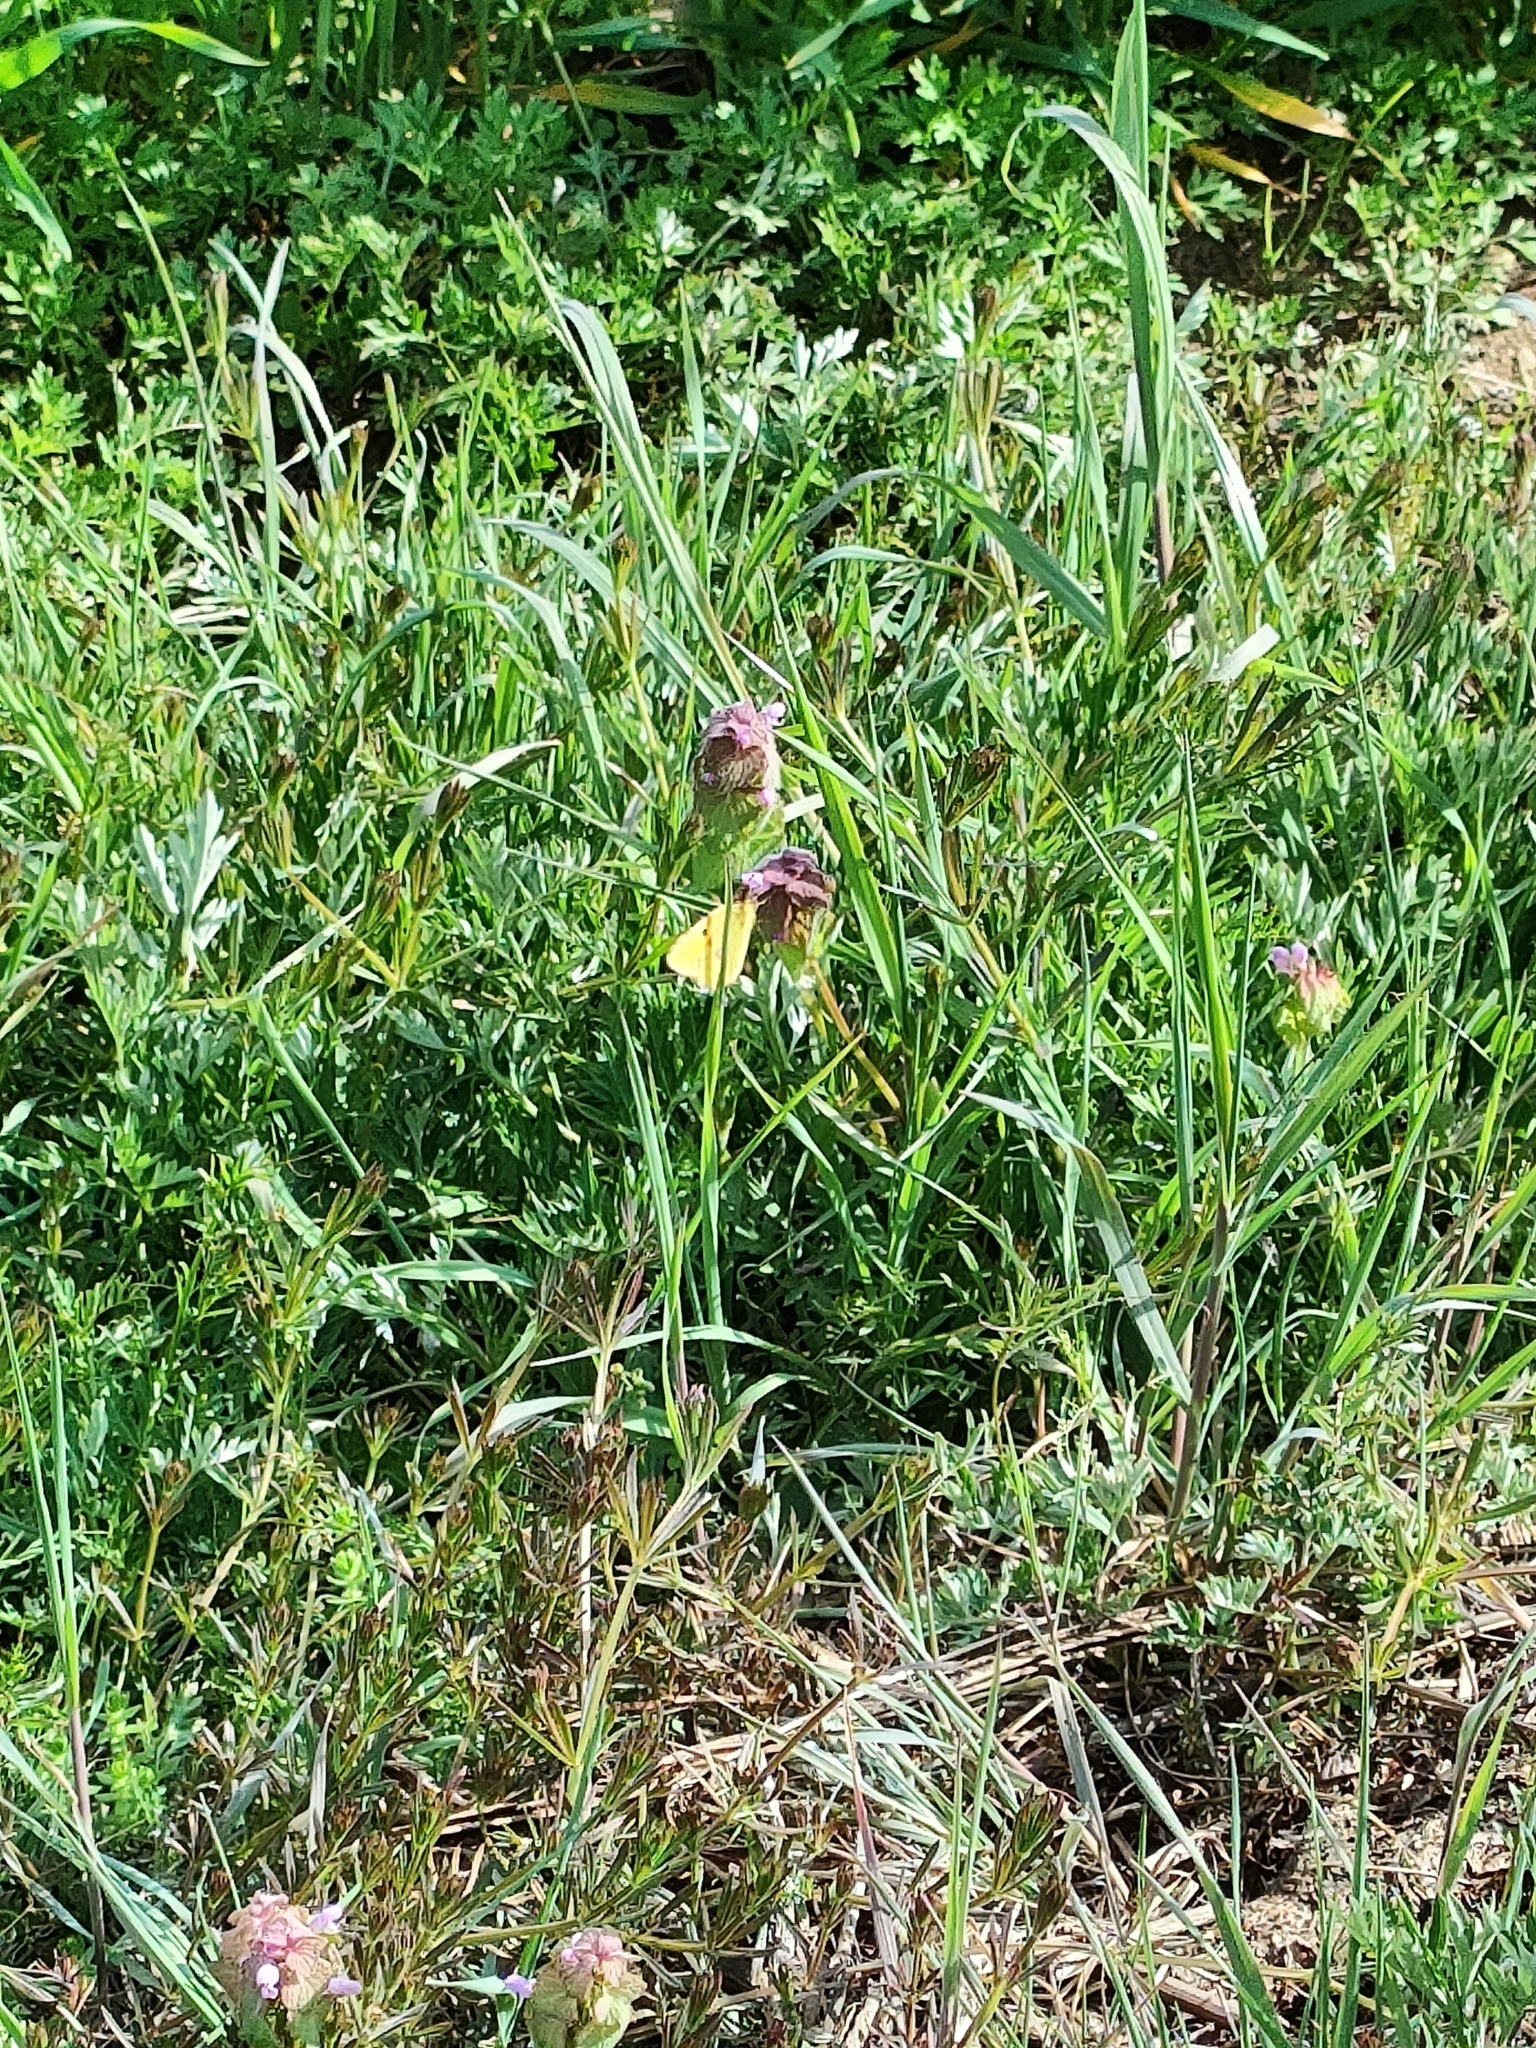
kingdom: Animalia
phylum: Arthropoda
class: Insecta
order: Lepidoptera
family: Pieridae
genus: Colias
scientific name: Colias croceus
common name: Clouded yellow
